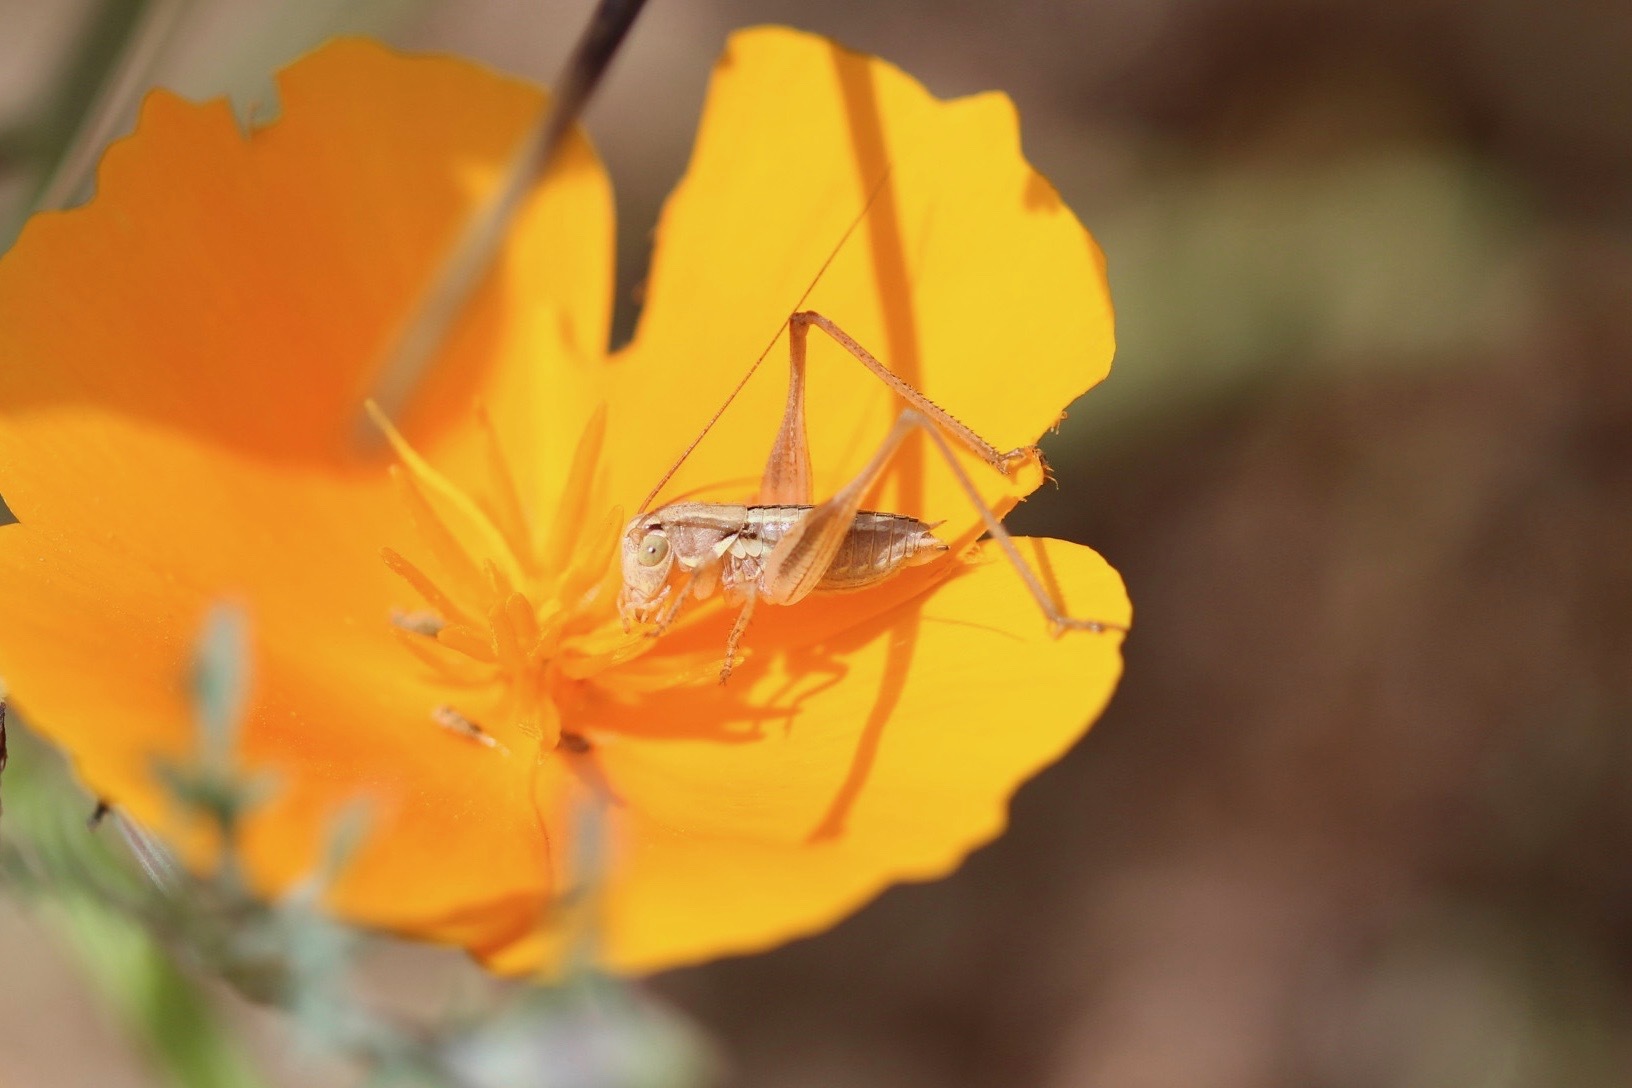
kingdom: Animalia
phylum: Arthropoda
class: Insecta
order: Orthoptera
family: Tettigoniidae
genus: Tessellana
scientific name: Tessellana tessellata
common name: Grasshopper
